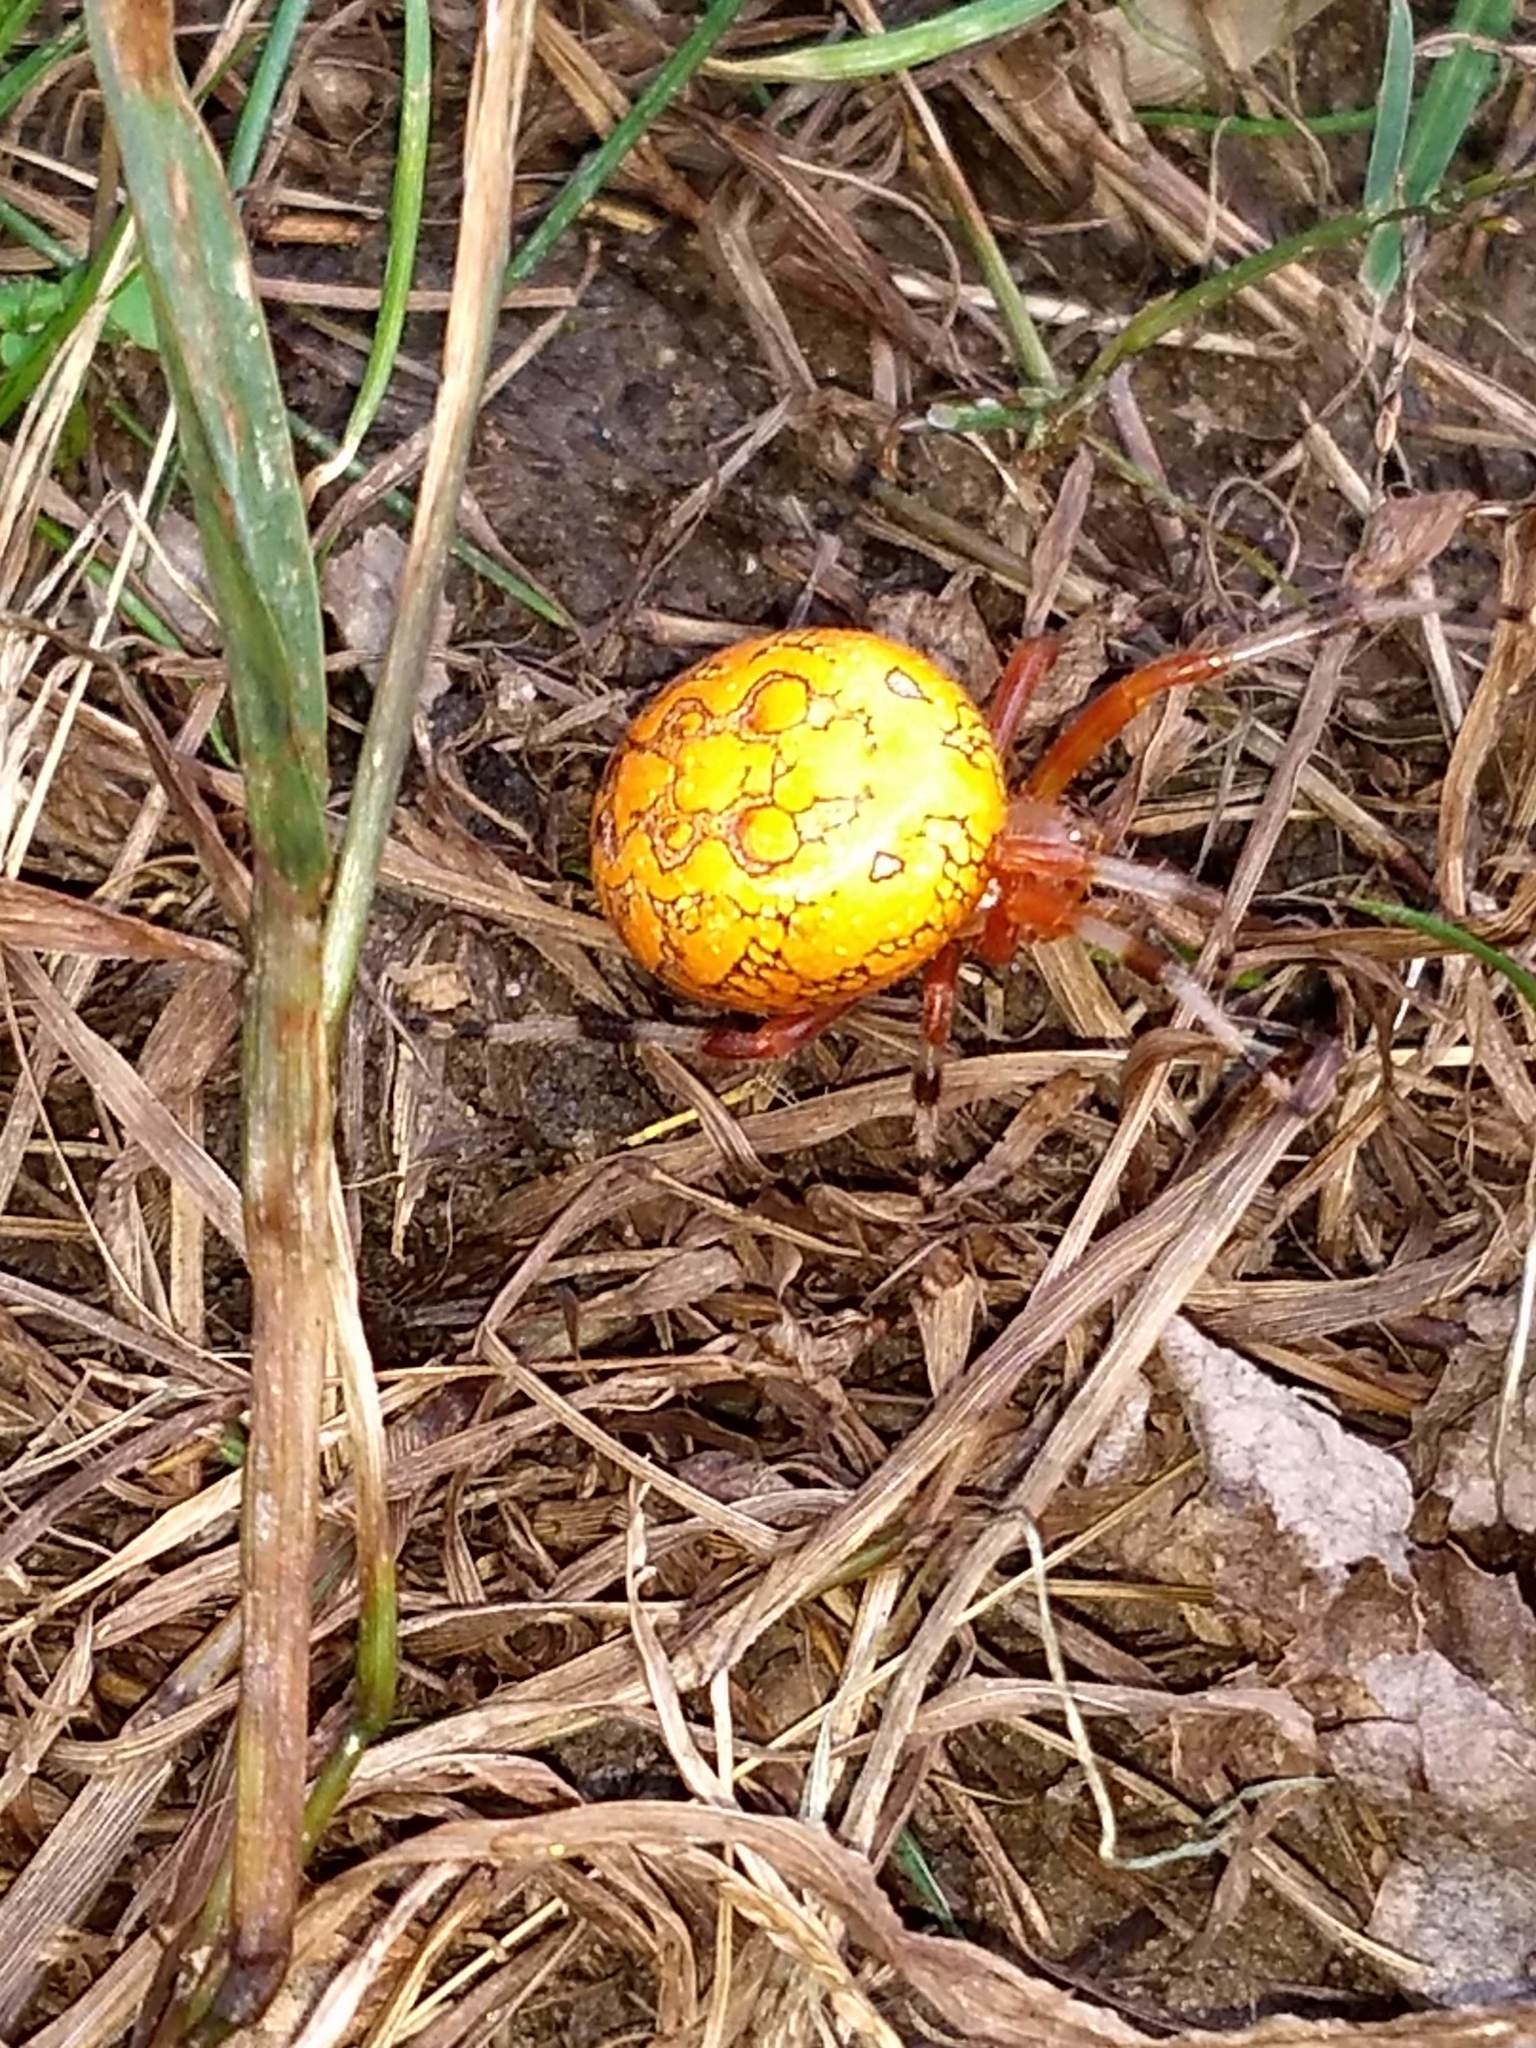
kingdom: Animalia
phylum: Arthropoda
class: Arachnida
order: Araneae
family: Araneidae
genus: Araneus
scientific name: Araneus marmoreus
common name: Marbled orbweaver
